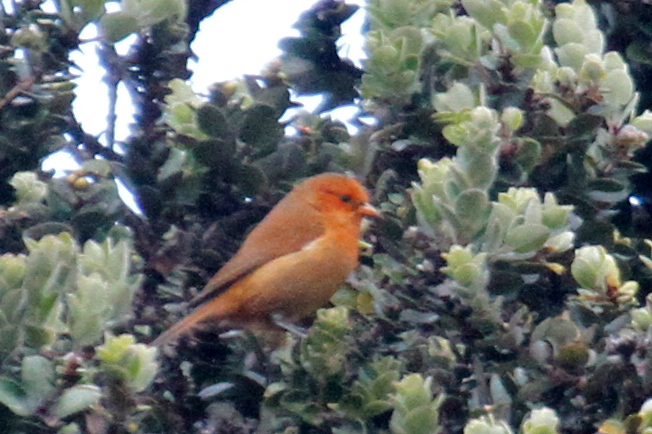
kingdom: Animalia
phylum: Chordata
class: Aves
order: Passeriformes
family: Fringillidae
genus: Loxops
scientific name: Loxops coccineus
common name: Hawaii akepa
